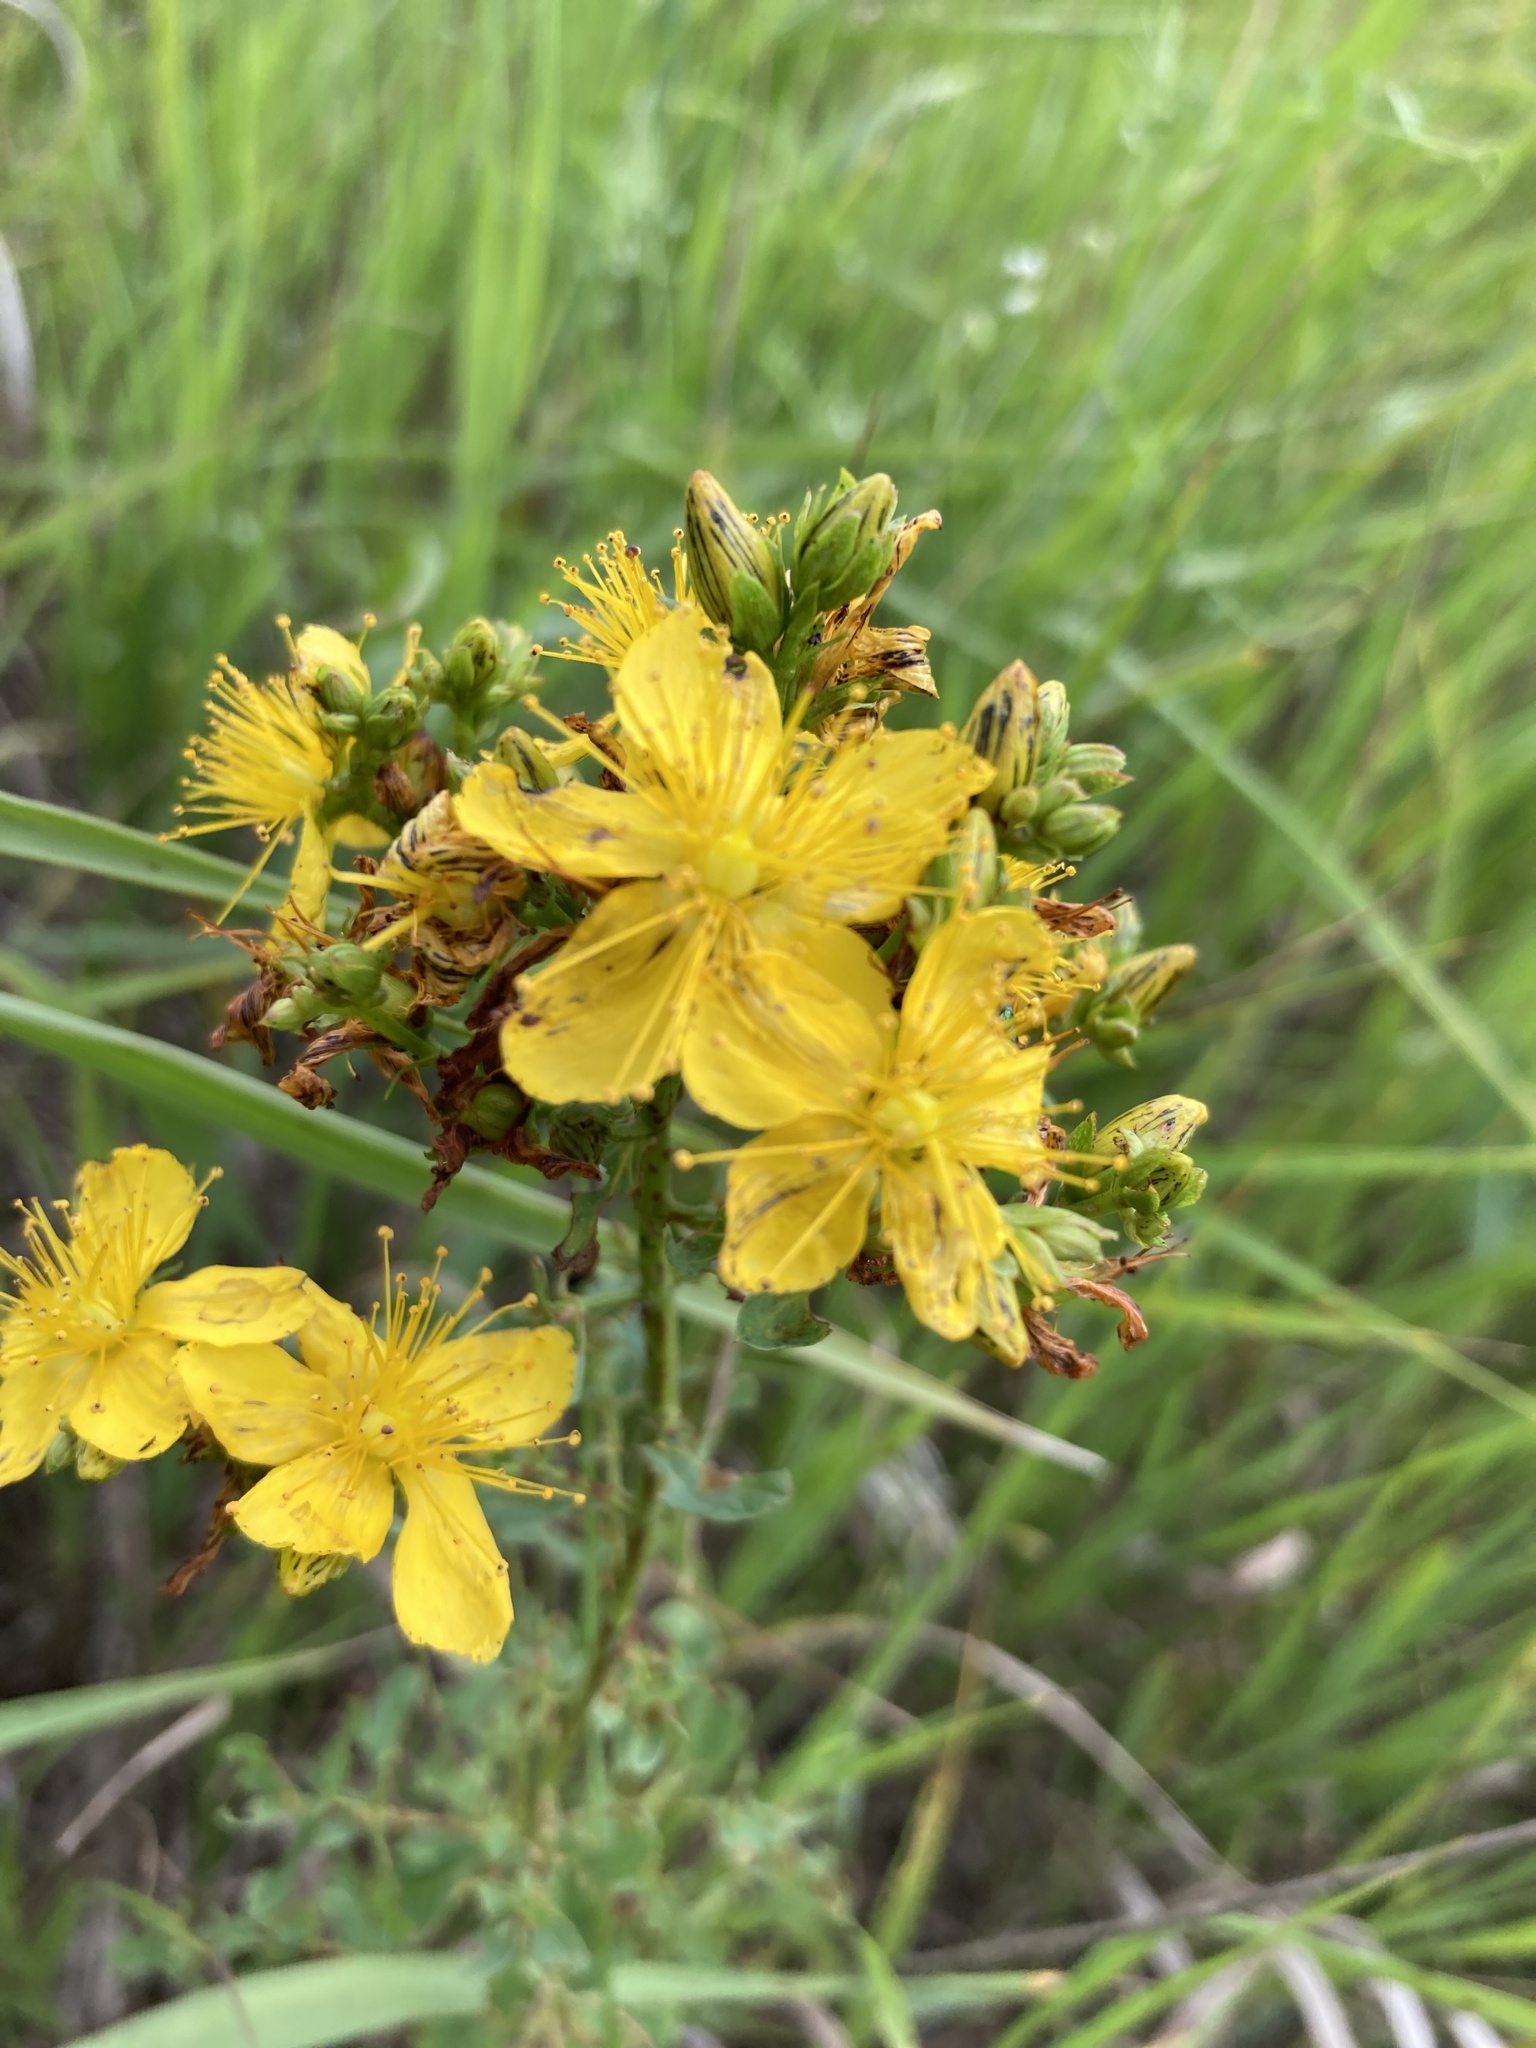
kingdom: Plantae
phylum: Tracheophyta
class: Magnoliopsida
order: Malpighiales
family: Hypericaceae
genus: Hypericum
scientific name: Hypericum perforatum
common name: Common st. johnswort
